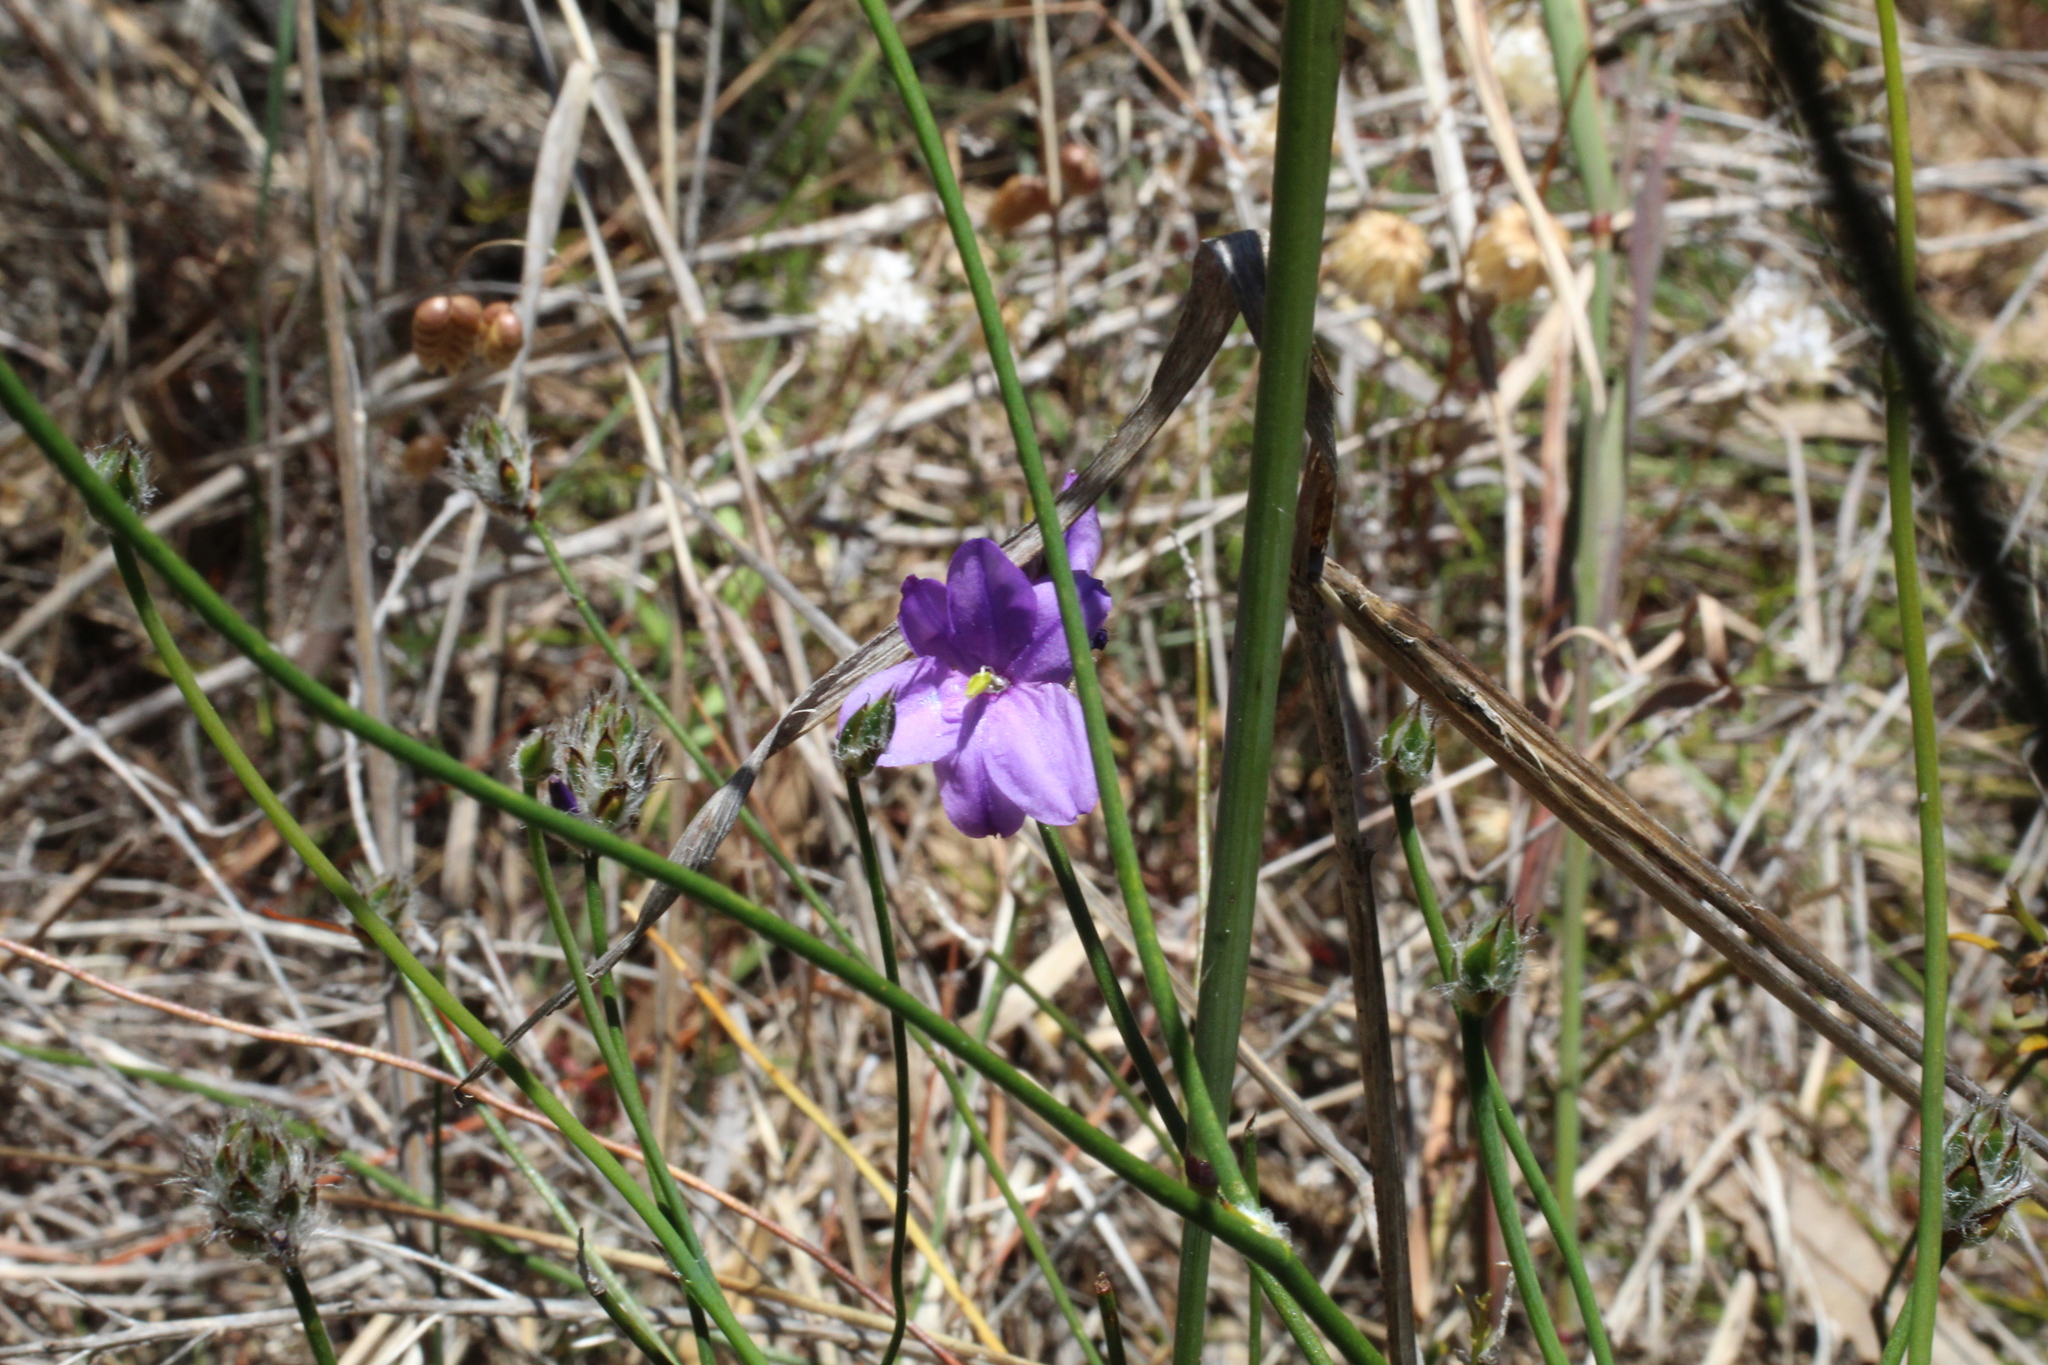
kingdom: Plantae
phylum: Tracheophyta
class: Liliopsida
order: Asparagales
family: Asphodelaceae
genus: Arnocrinum
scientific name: Arnocrinum preisii
